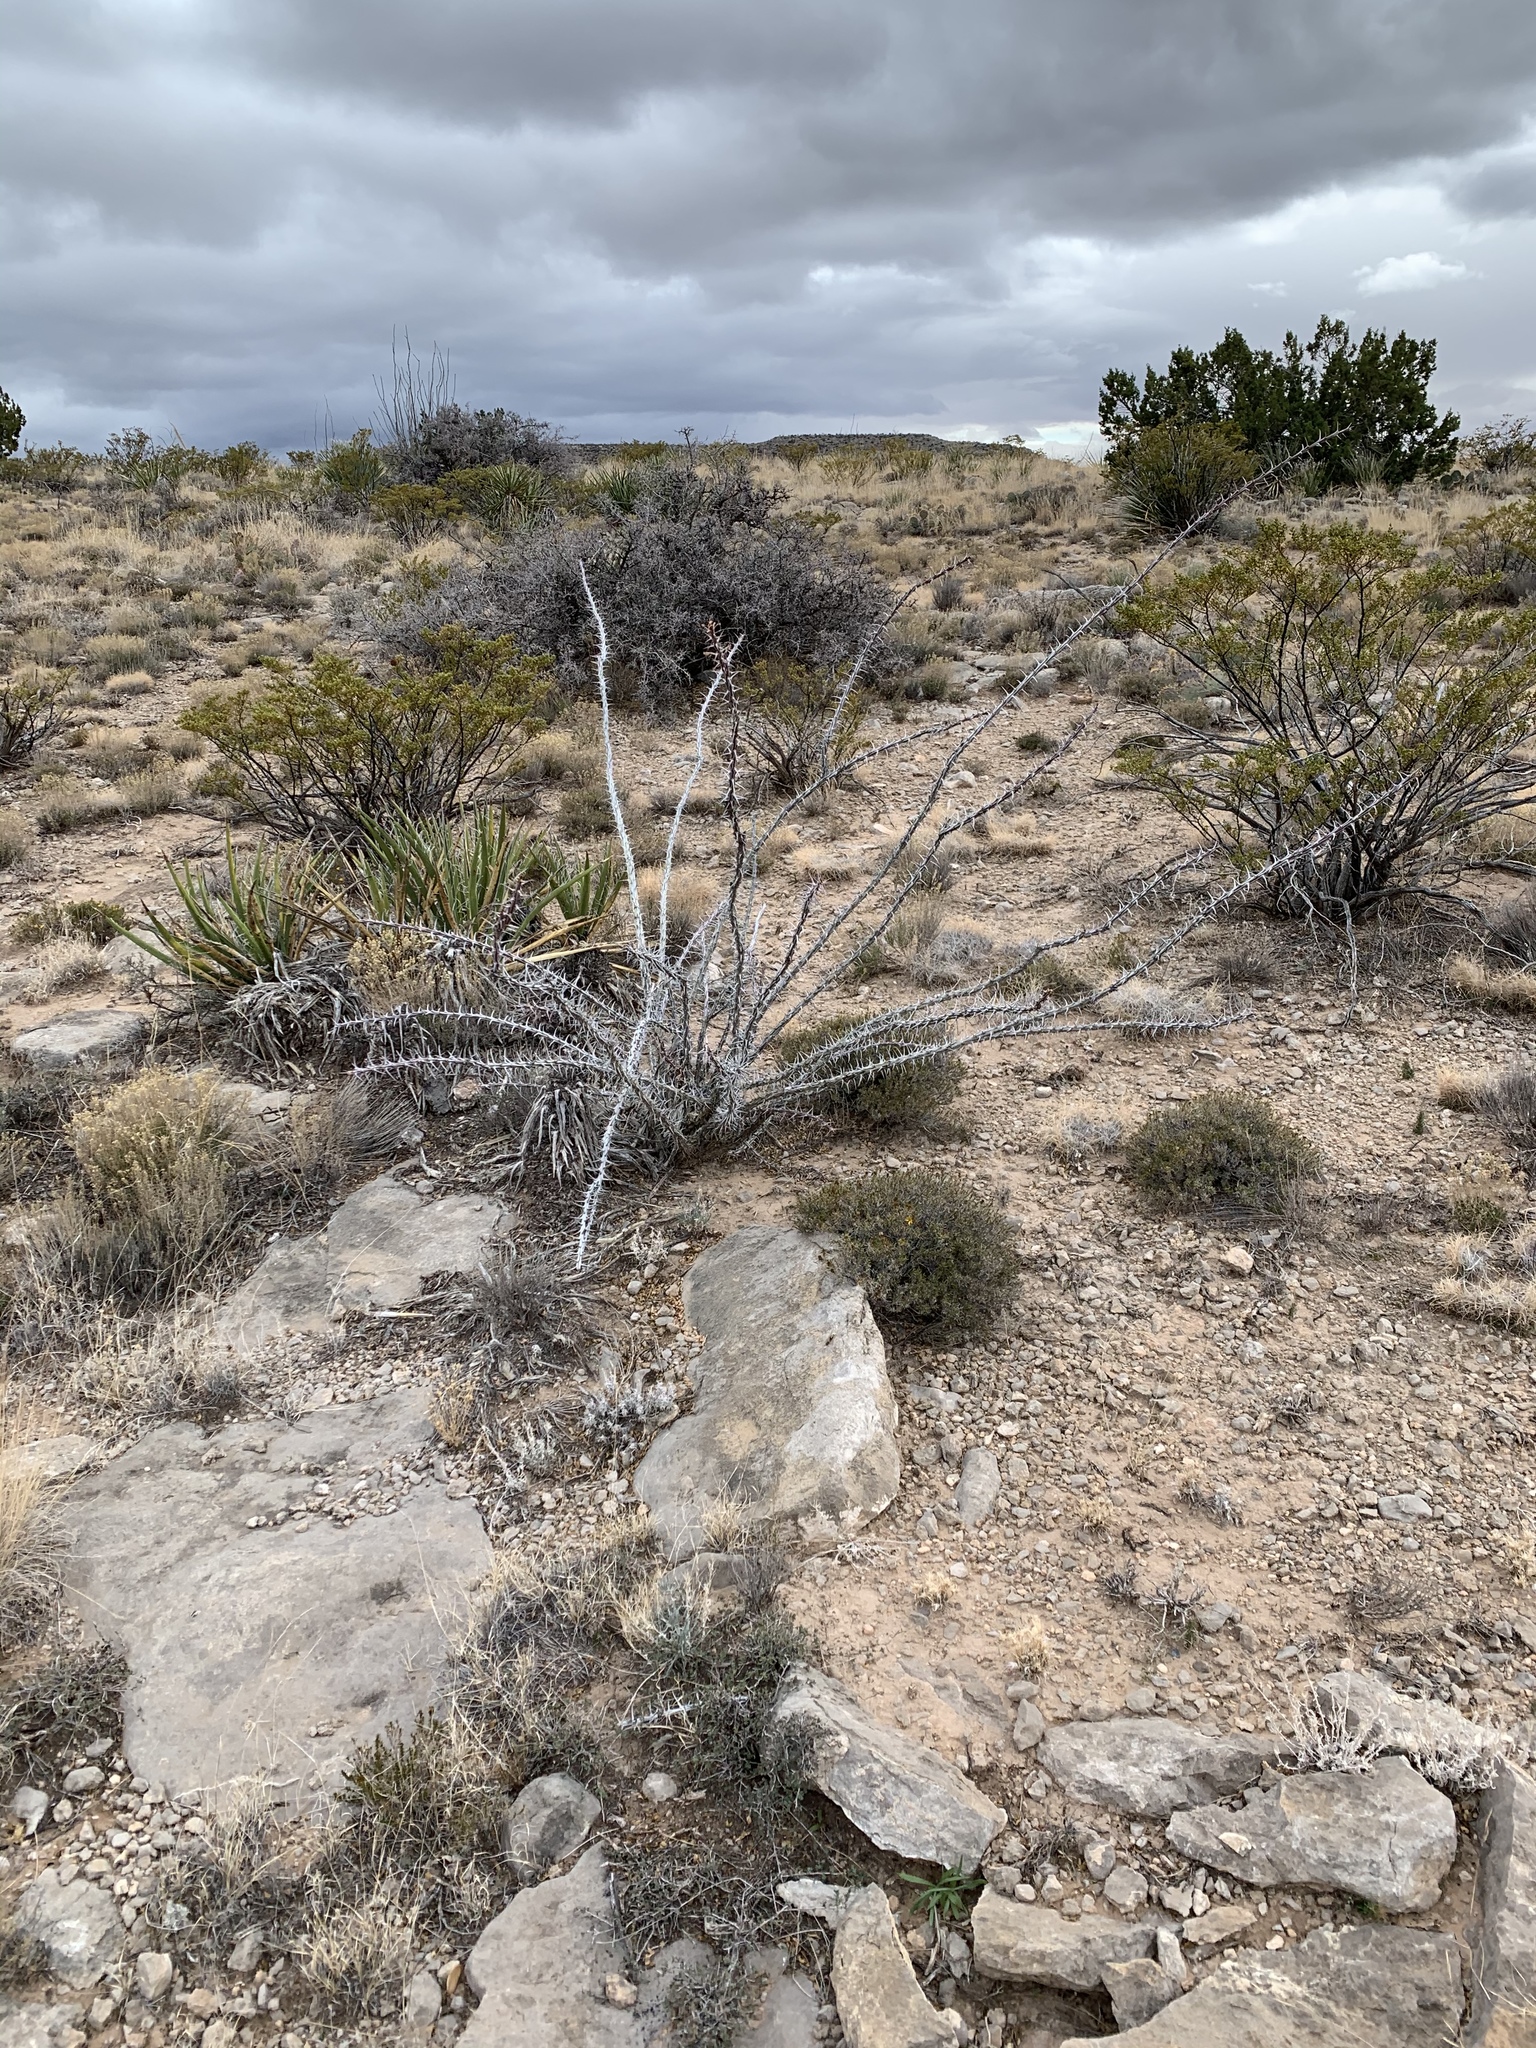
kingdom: Plantae
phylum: Tracheophyta
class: Magnoliopsida
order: Ericales
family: Fouquieriaceae
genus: Fouquieria
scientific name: Fouquieria splendens
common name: Vine-cactus
